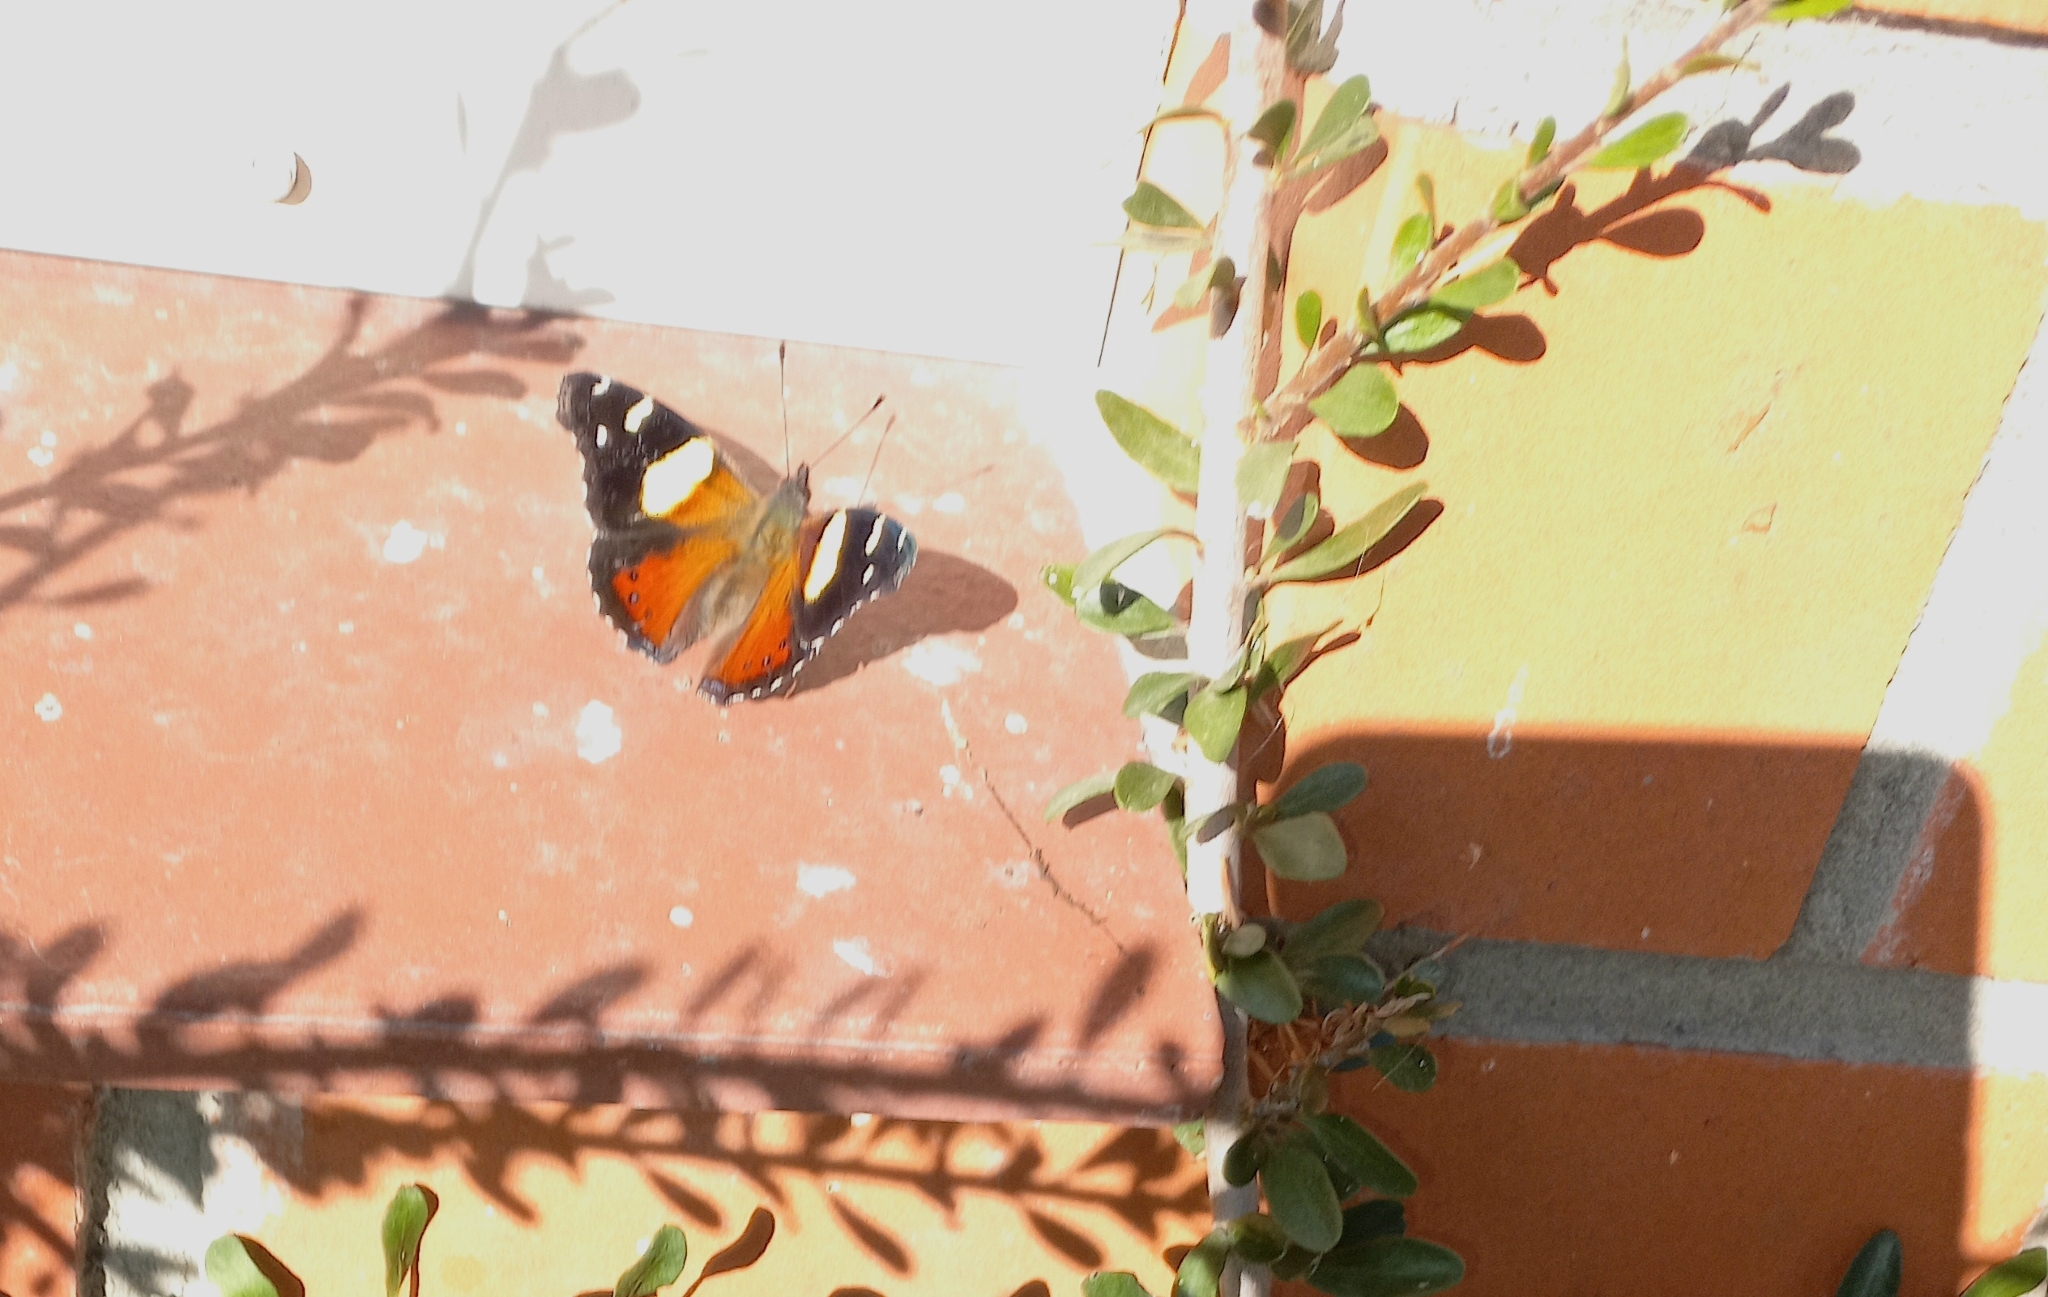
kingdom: Animalia
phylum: Arthropoda
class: Insecta
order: Lepidoptera
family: Nymphalidae
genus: Vanessa
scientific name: Vanessa itea
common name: Yellow admiral
